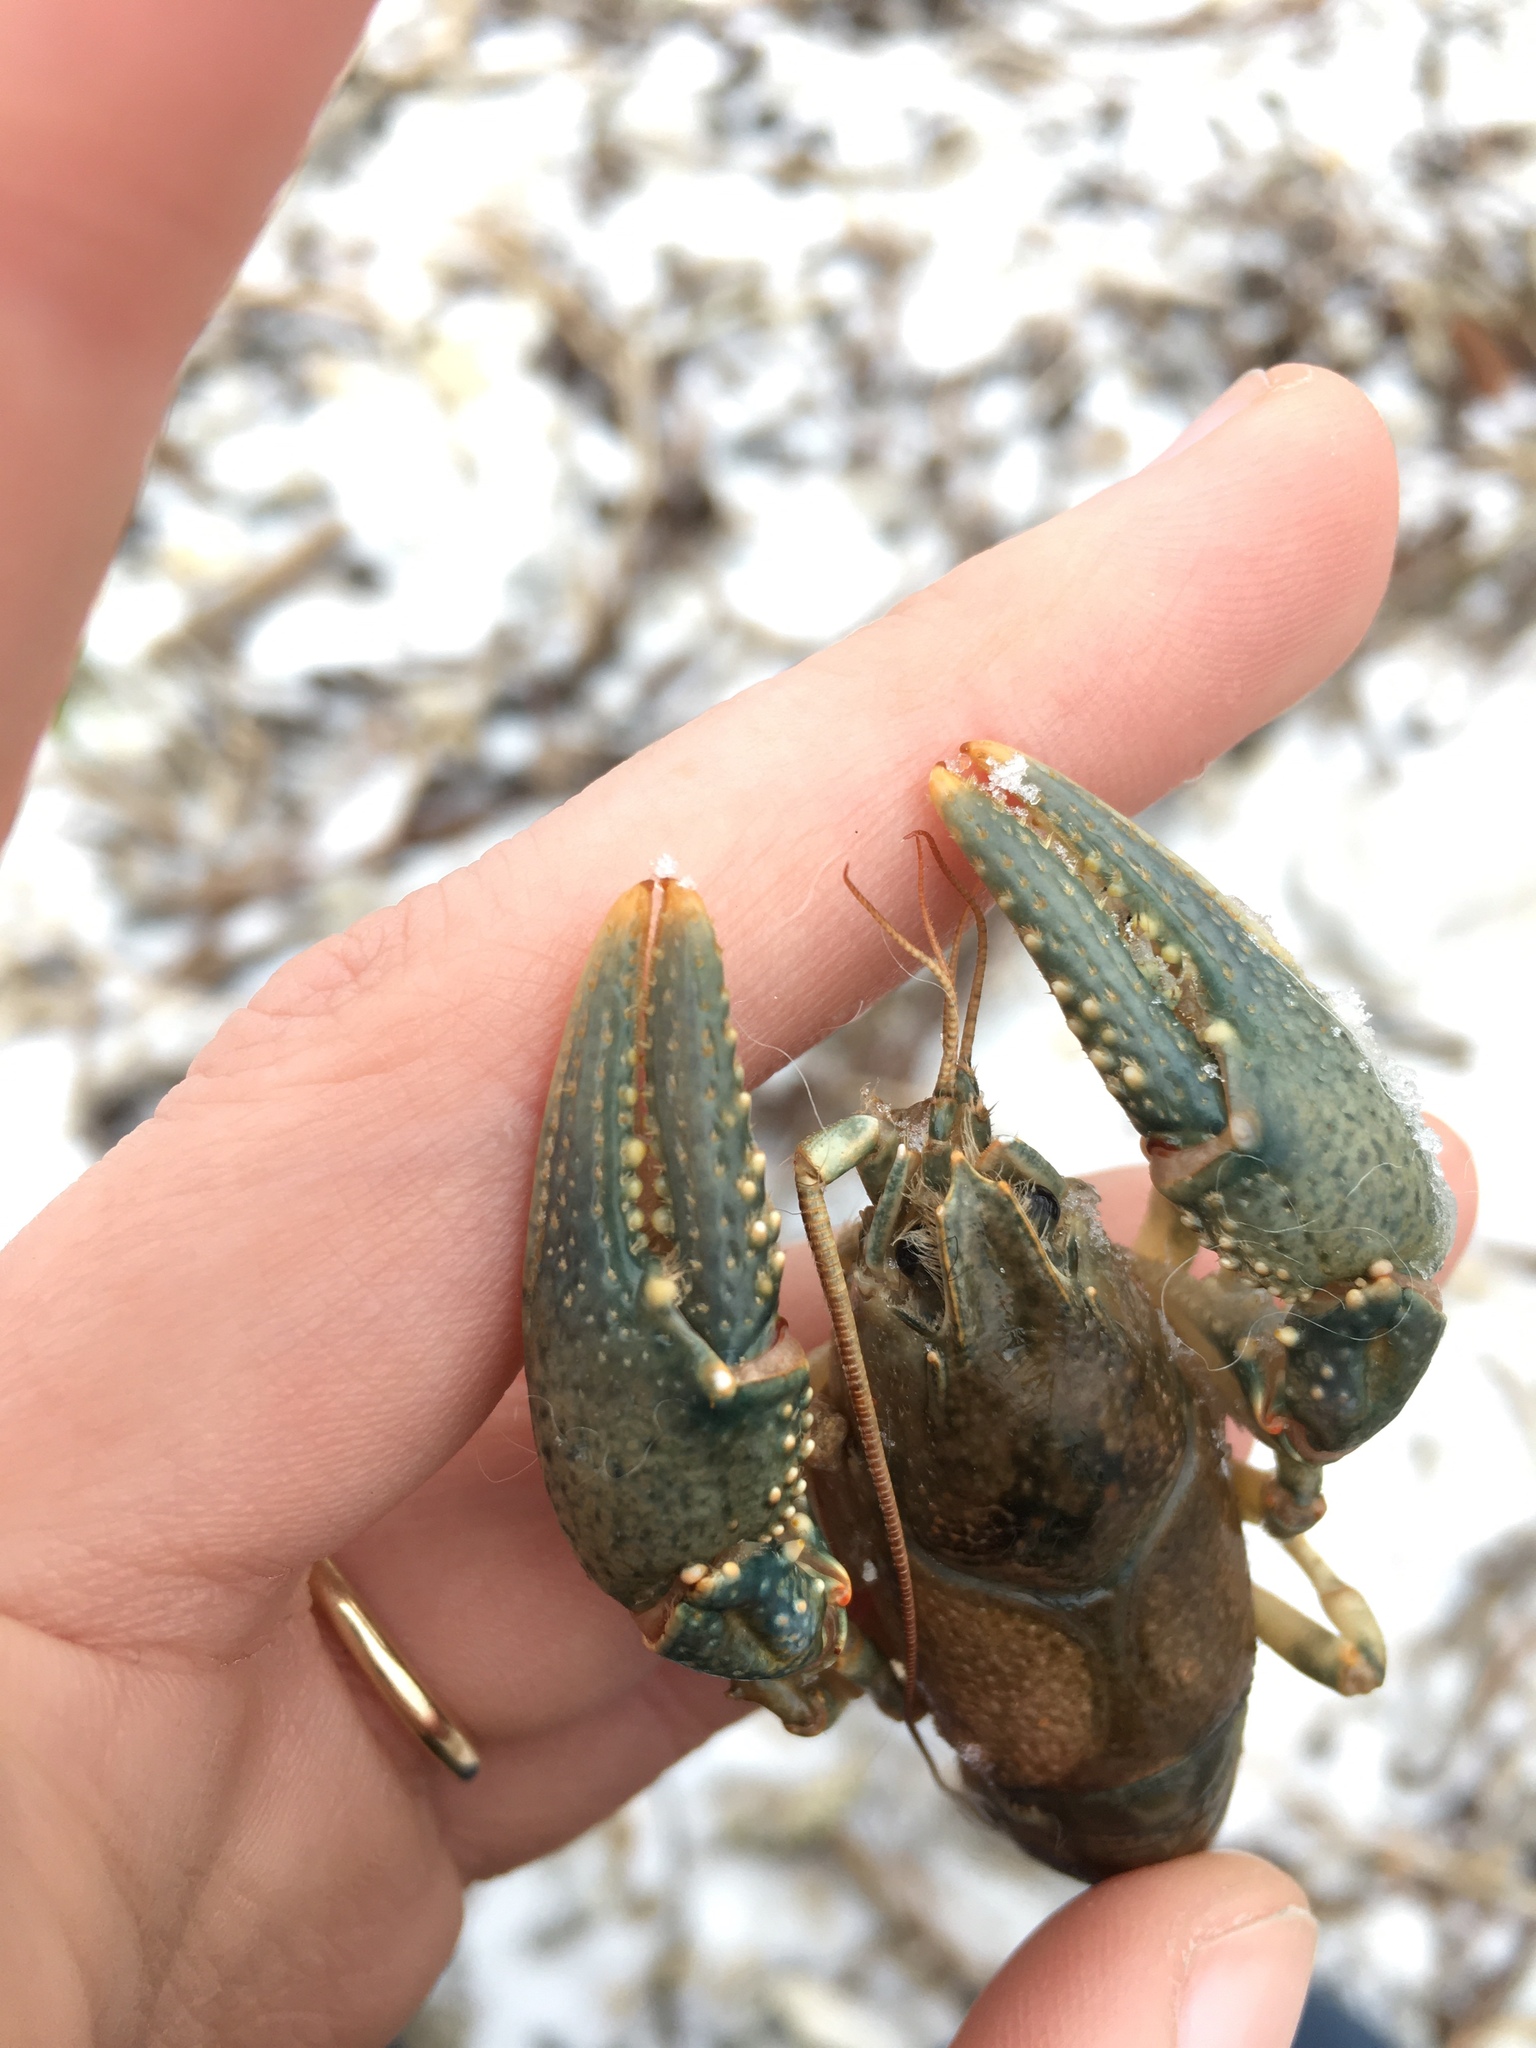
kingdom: Animalia
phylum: Arthropoda
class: Malacostraca
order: Decapoda
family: Cambaridae
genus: Faxonius
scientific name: Faxonius virilis
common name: Virile crayfish
